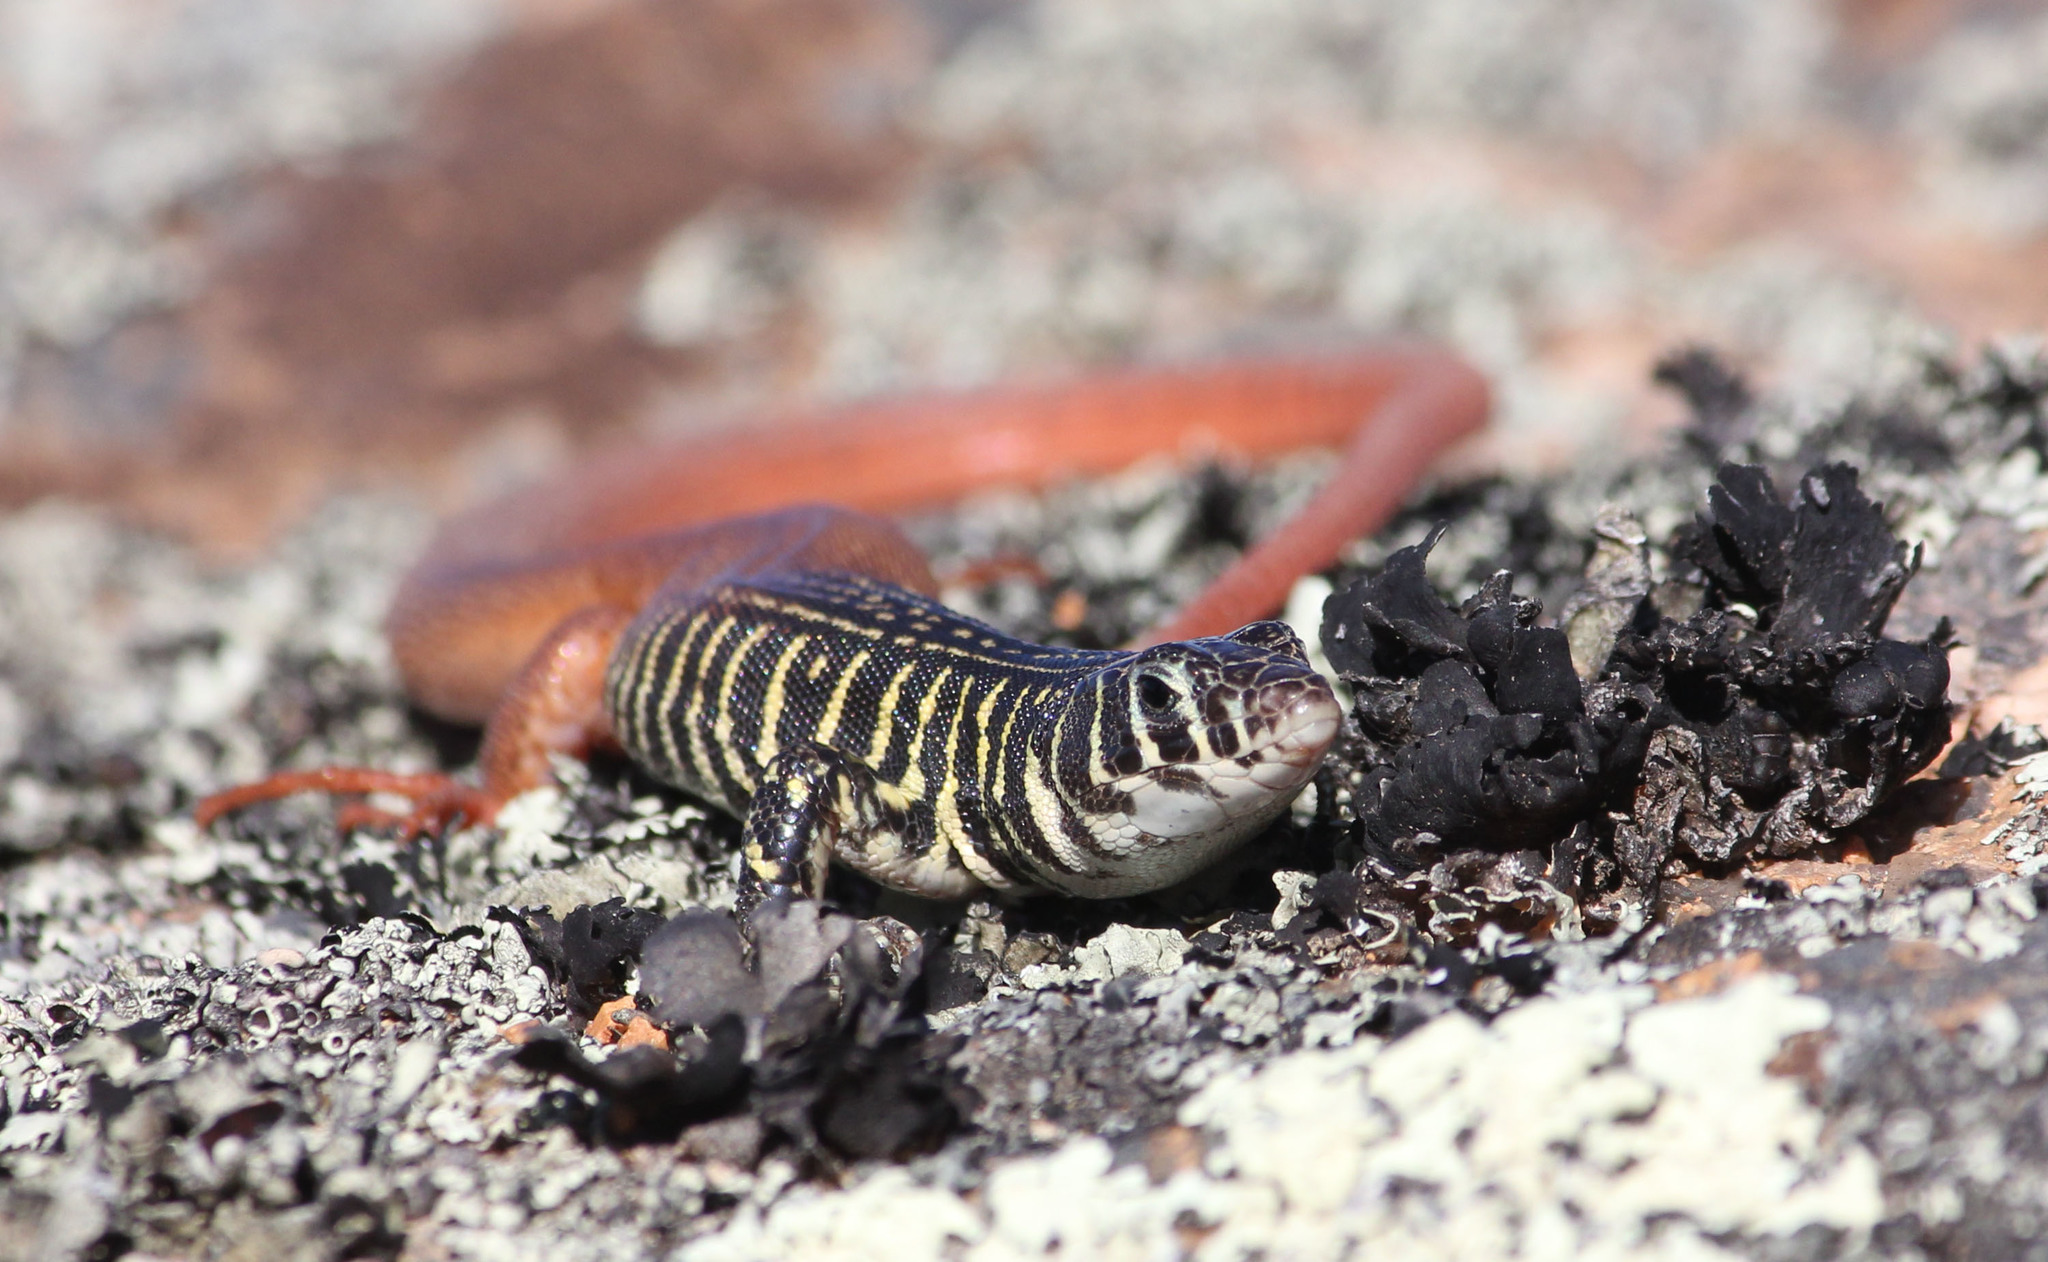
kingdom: Animalia
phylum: Chordata
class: Squamata
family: Lacertidae
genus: Nucras
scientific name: Nucras tessellata
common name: Western sandveld lizard
